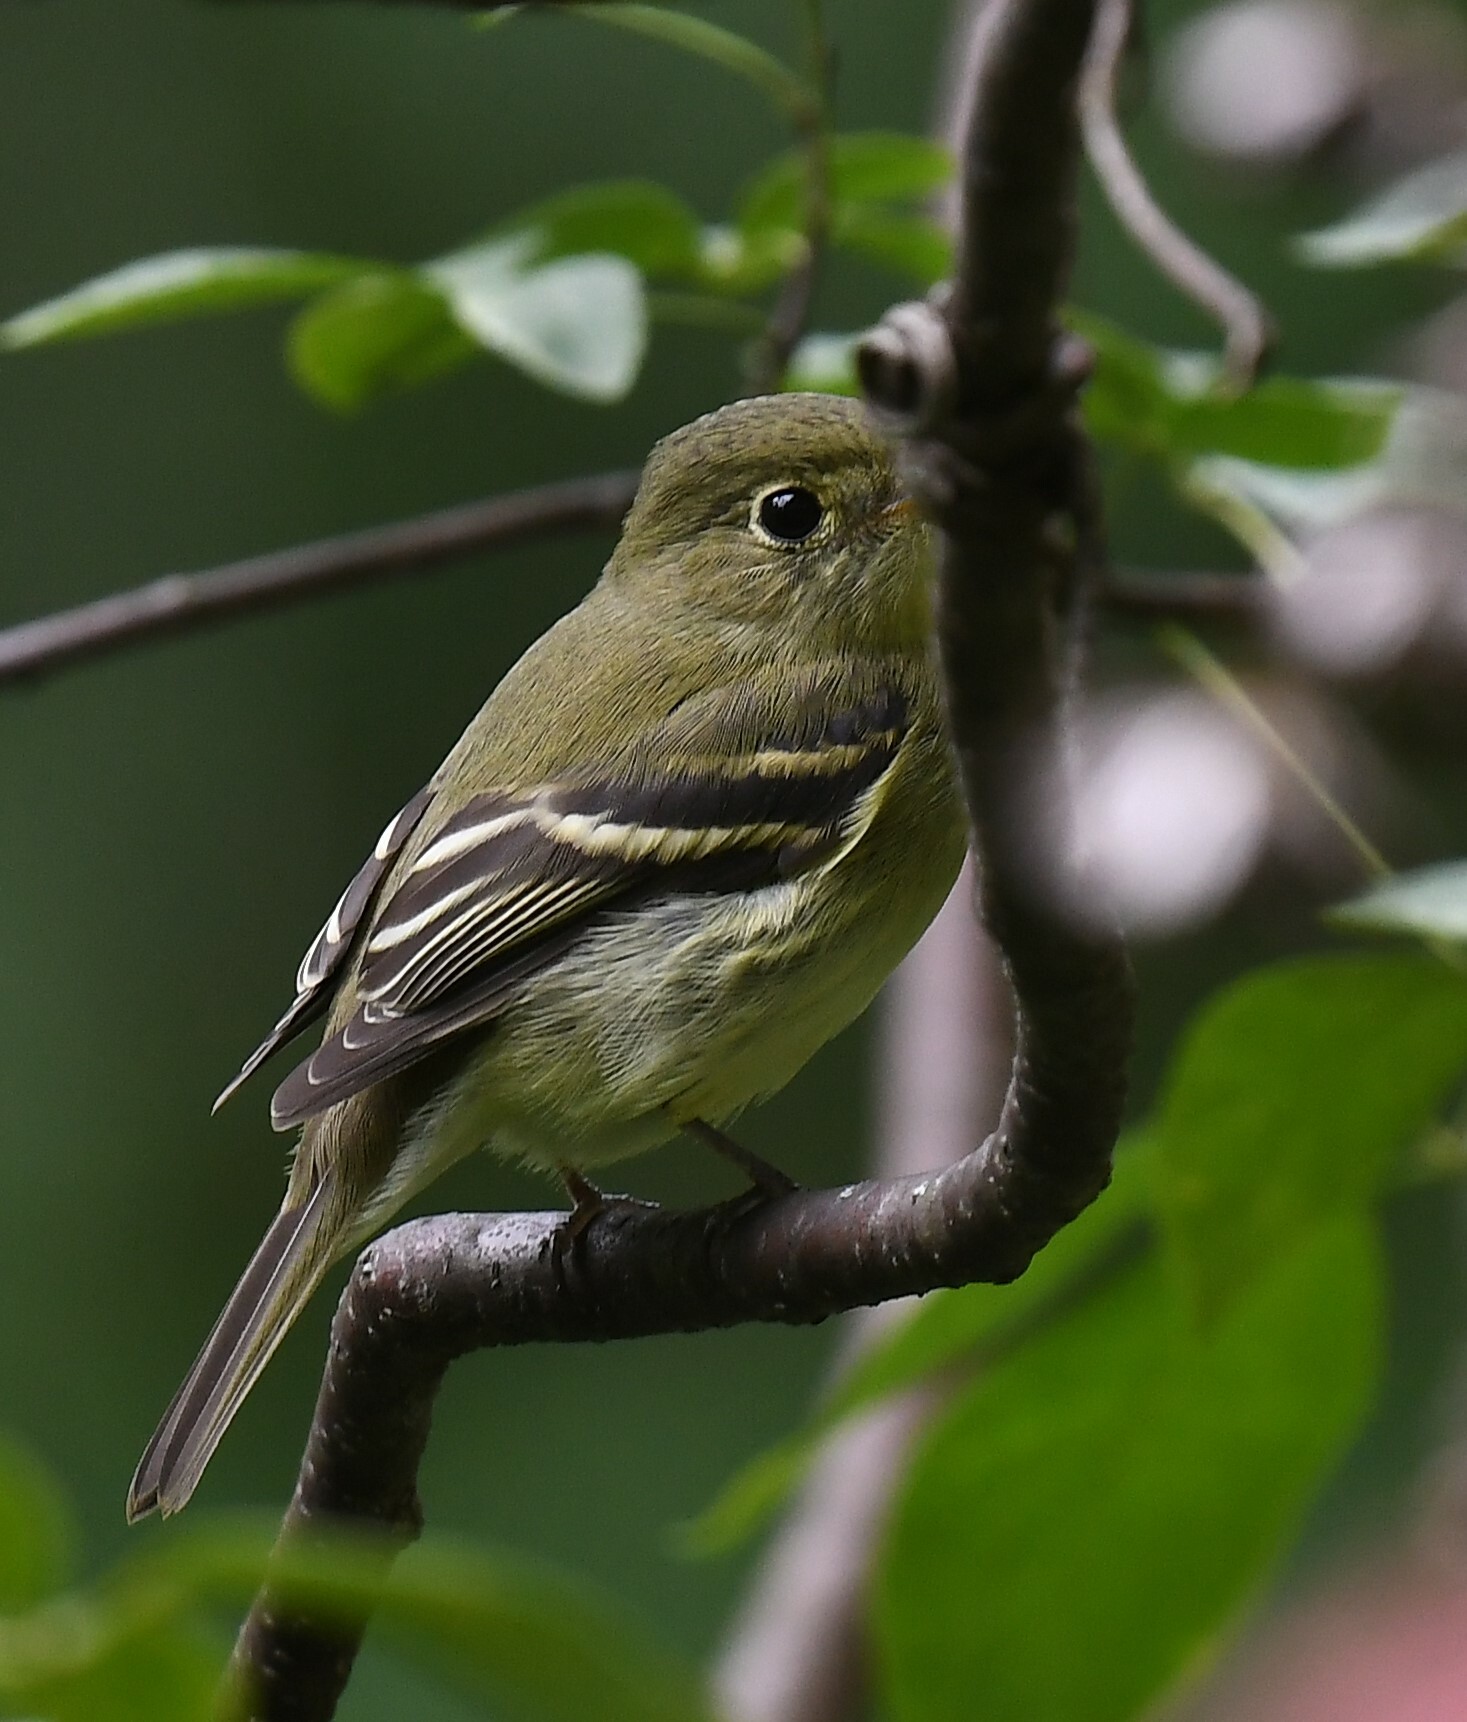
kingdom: Animalia
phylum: Chordata
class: Aves
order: Passeriformes
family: Tyrannidae
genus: Empidonax
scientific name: Empidonax flaviventris
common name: Yellow-bellied flycatcher
